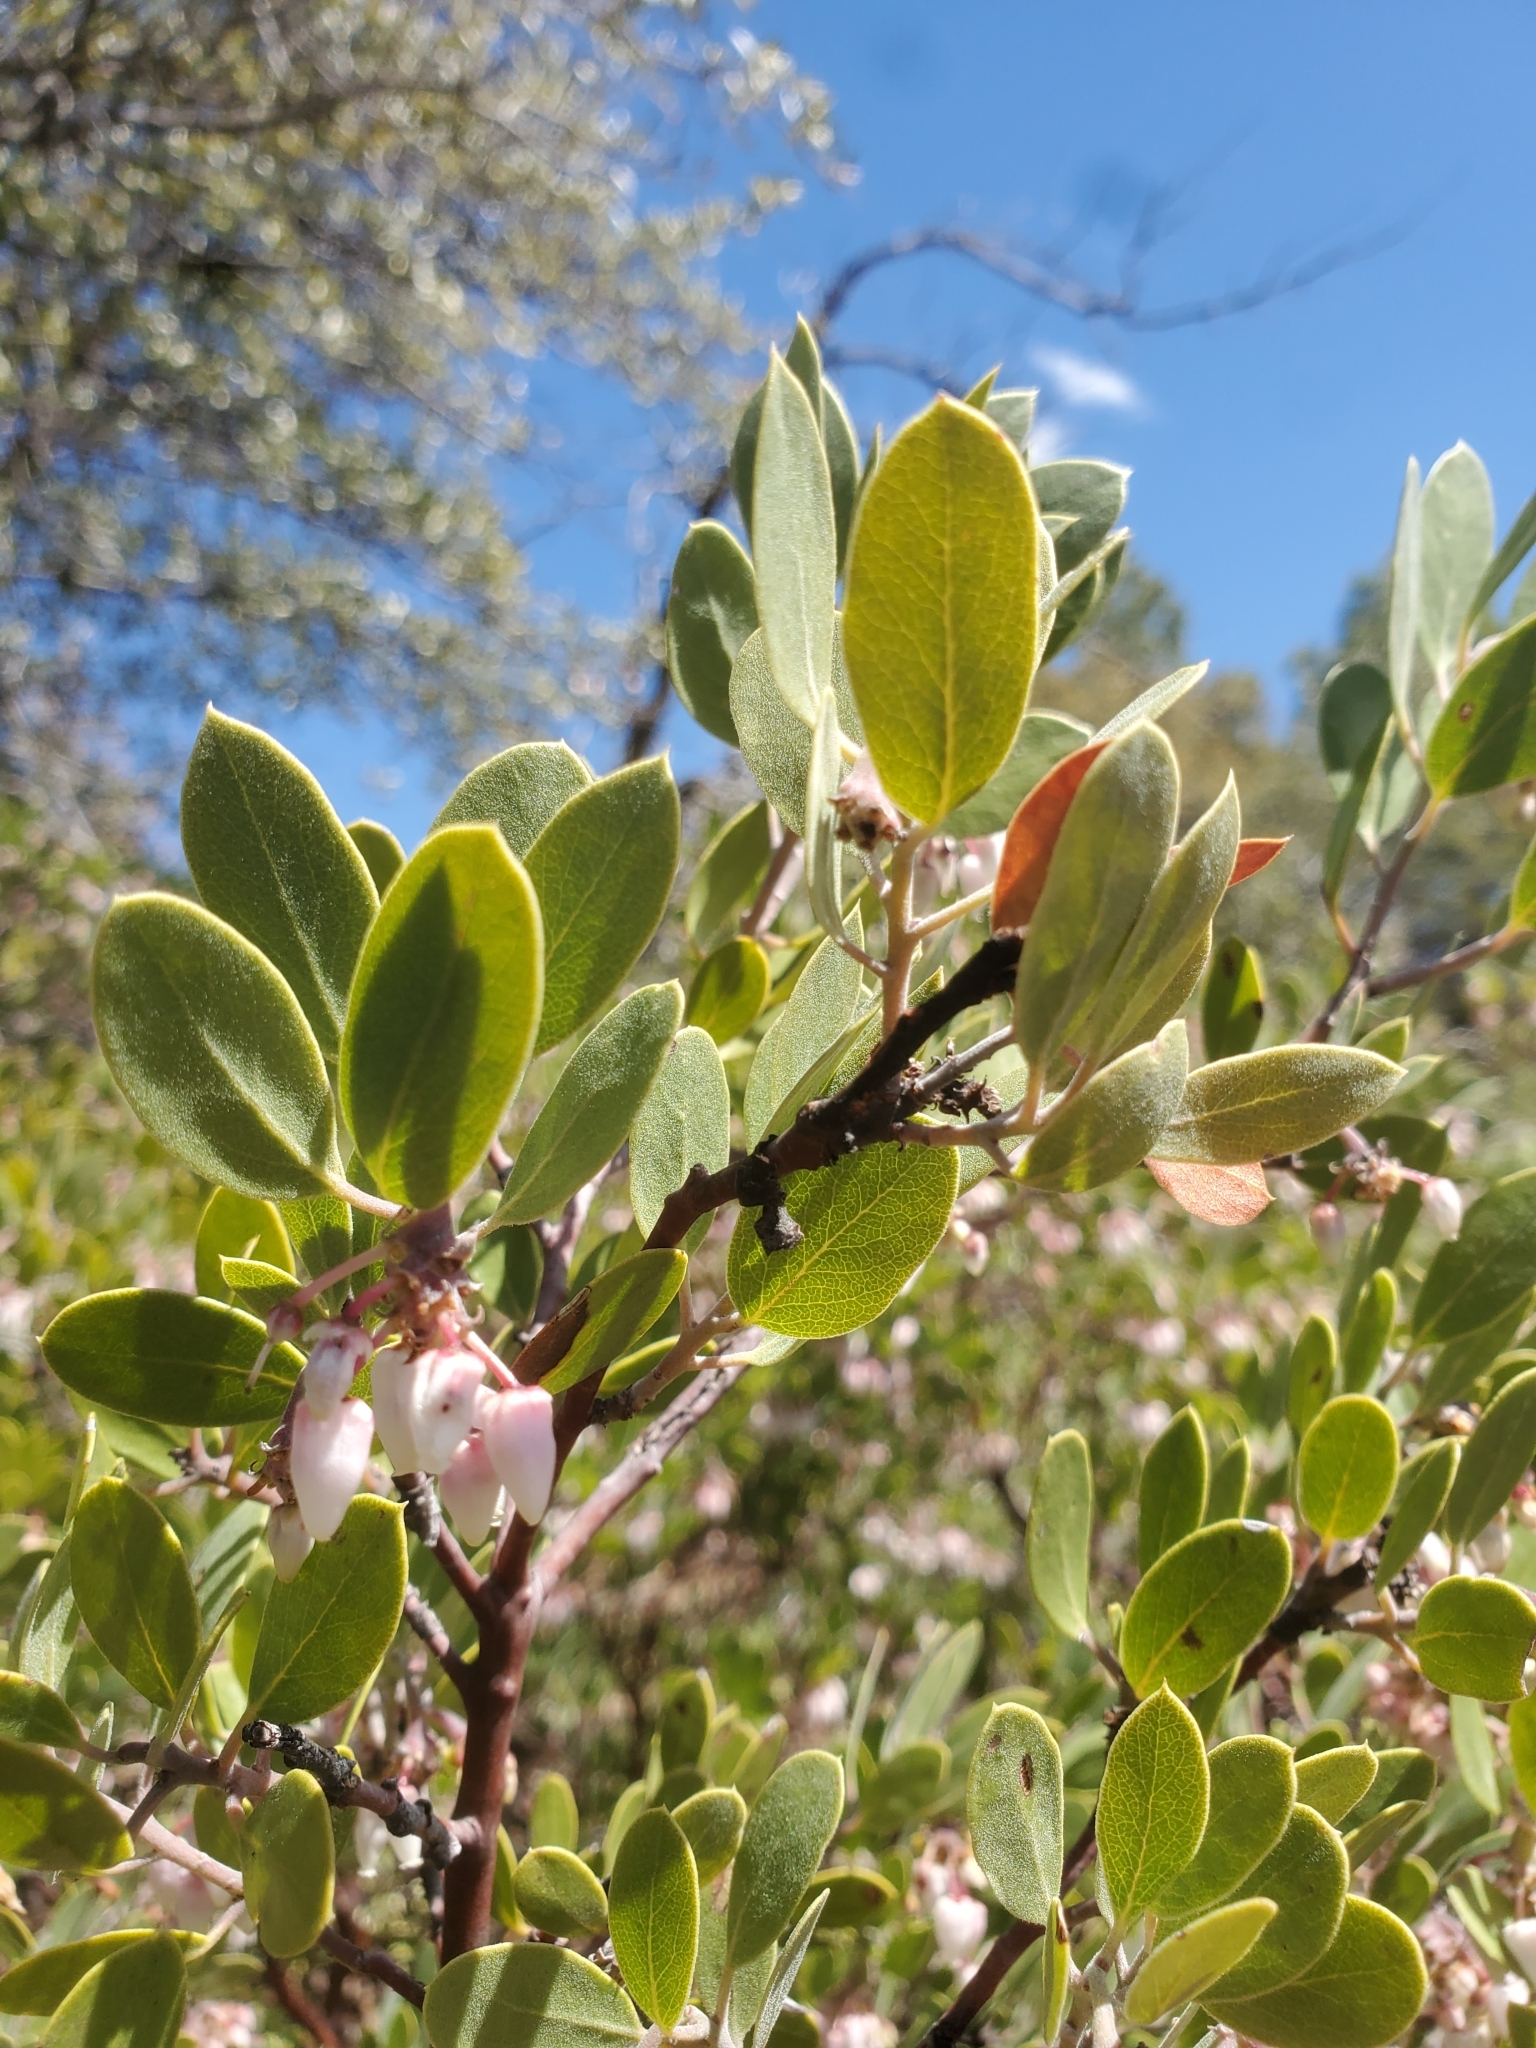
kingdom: Plantae
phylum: Tracheophyta
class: Magnoliopsida
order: Ericales
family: Ericaceae
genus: Arctostaphylos
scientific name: Arctostaphylos pungens
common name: Mexican manzanita
